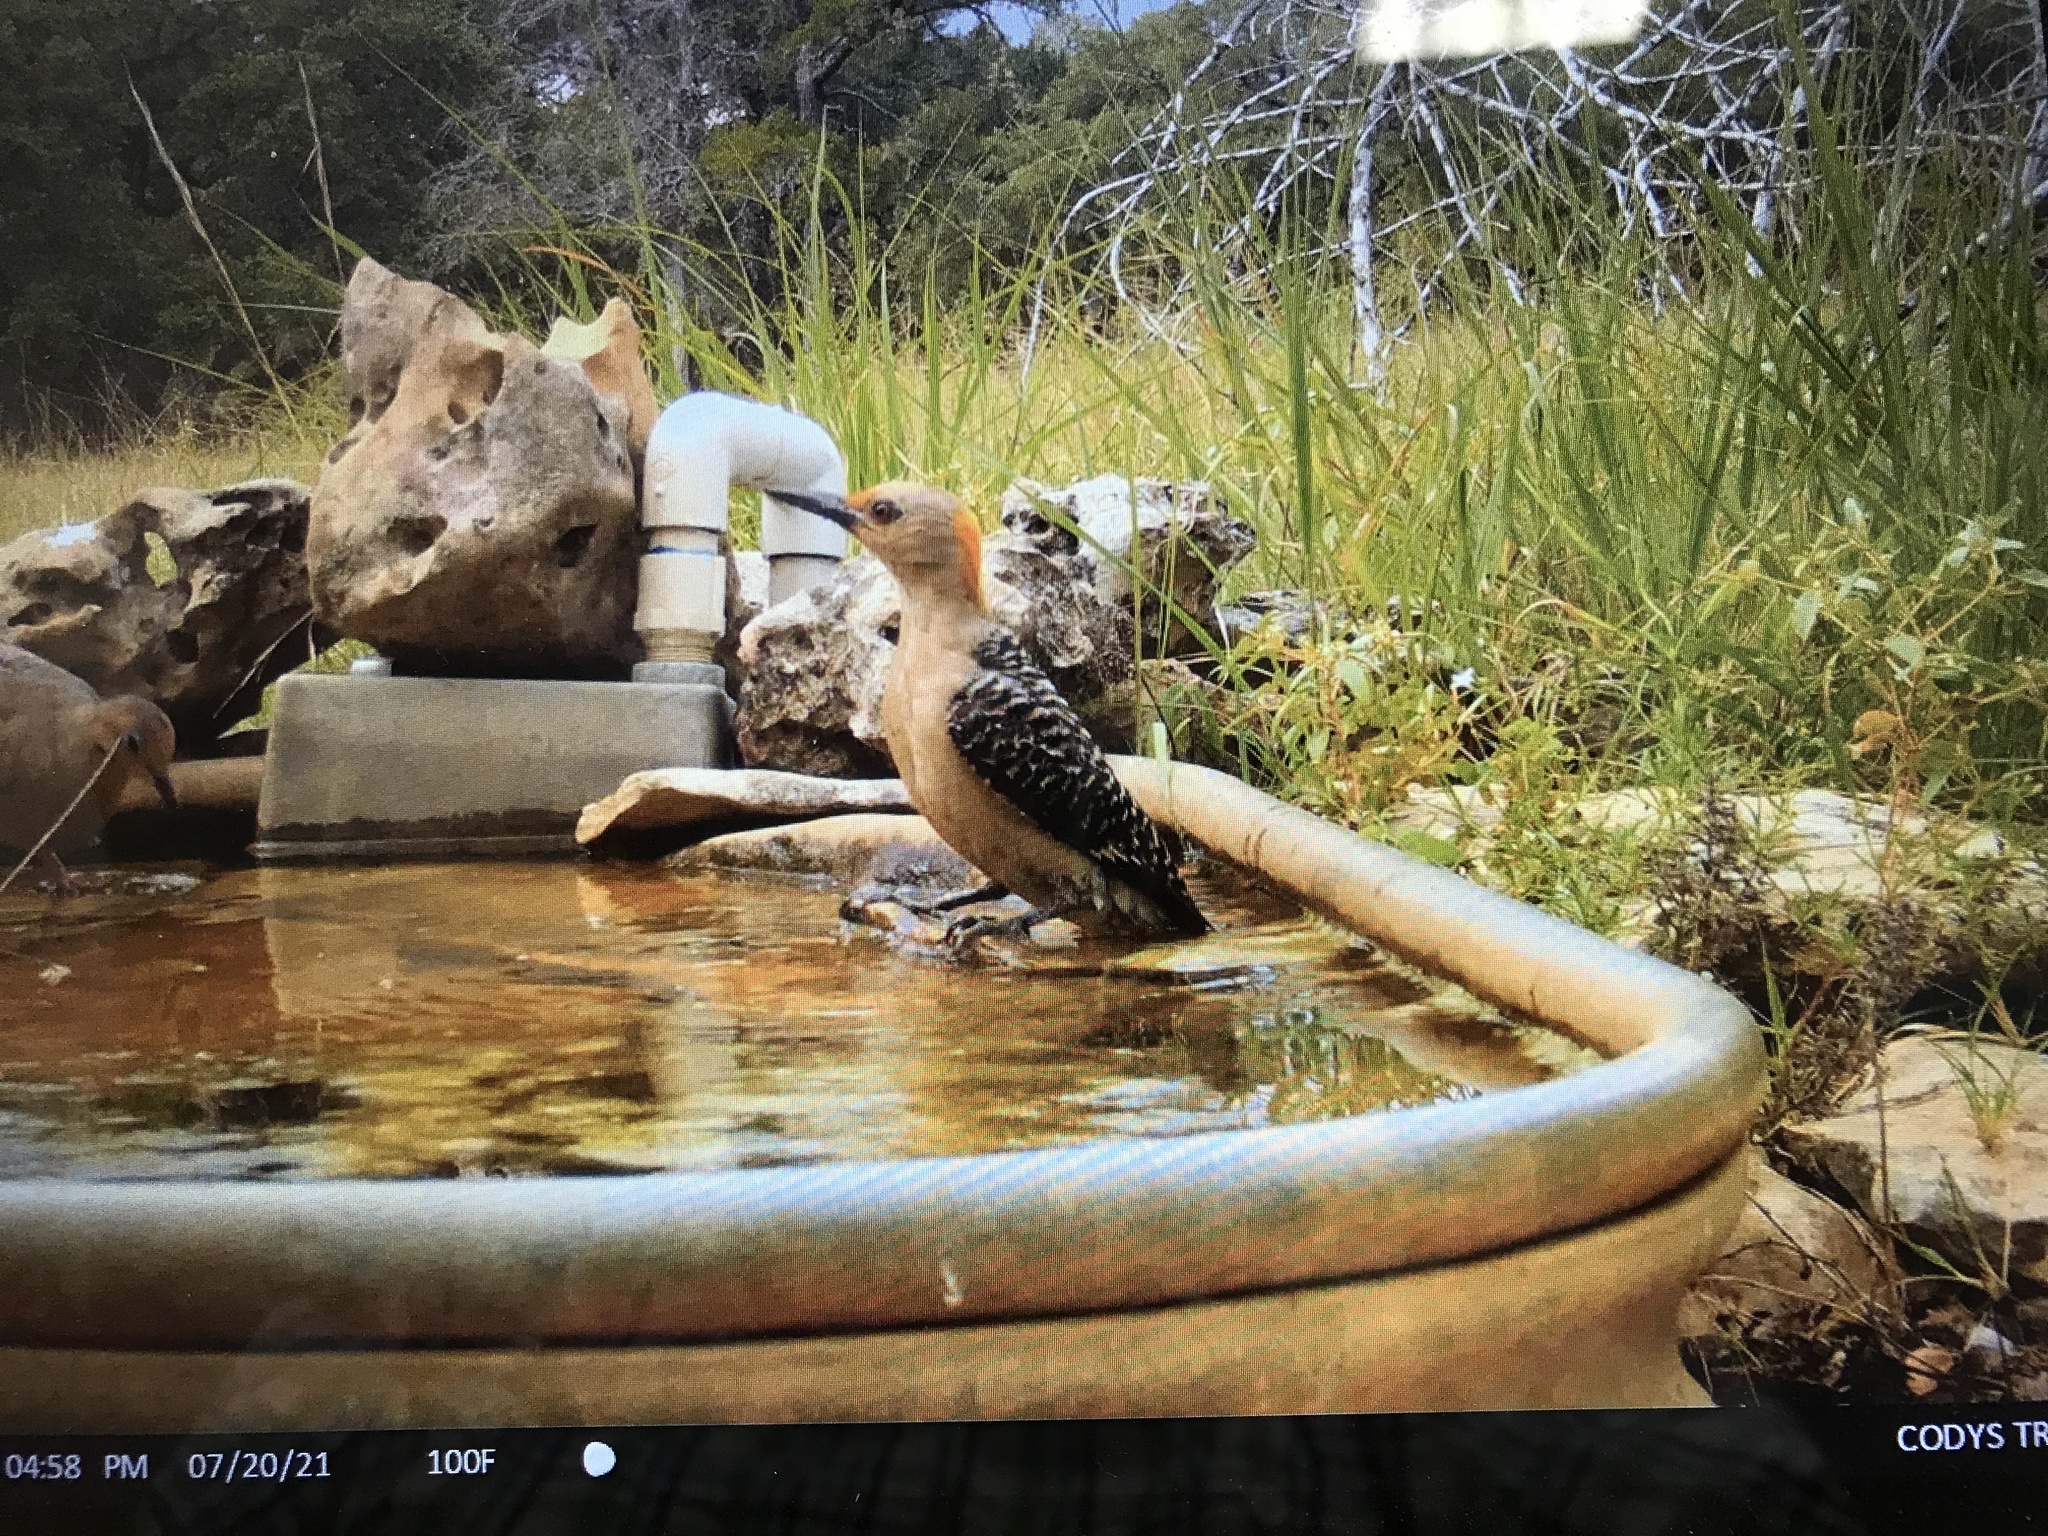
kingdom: Animalia
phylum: Chordata
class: Aves
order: Piciformes
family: Picidae
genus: Melanerpes
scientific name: Melanerpes aurifrons
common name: Golden-fronted woodpecker
